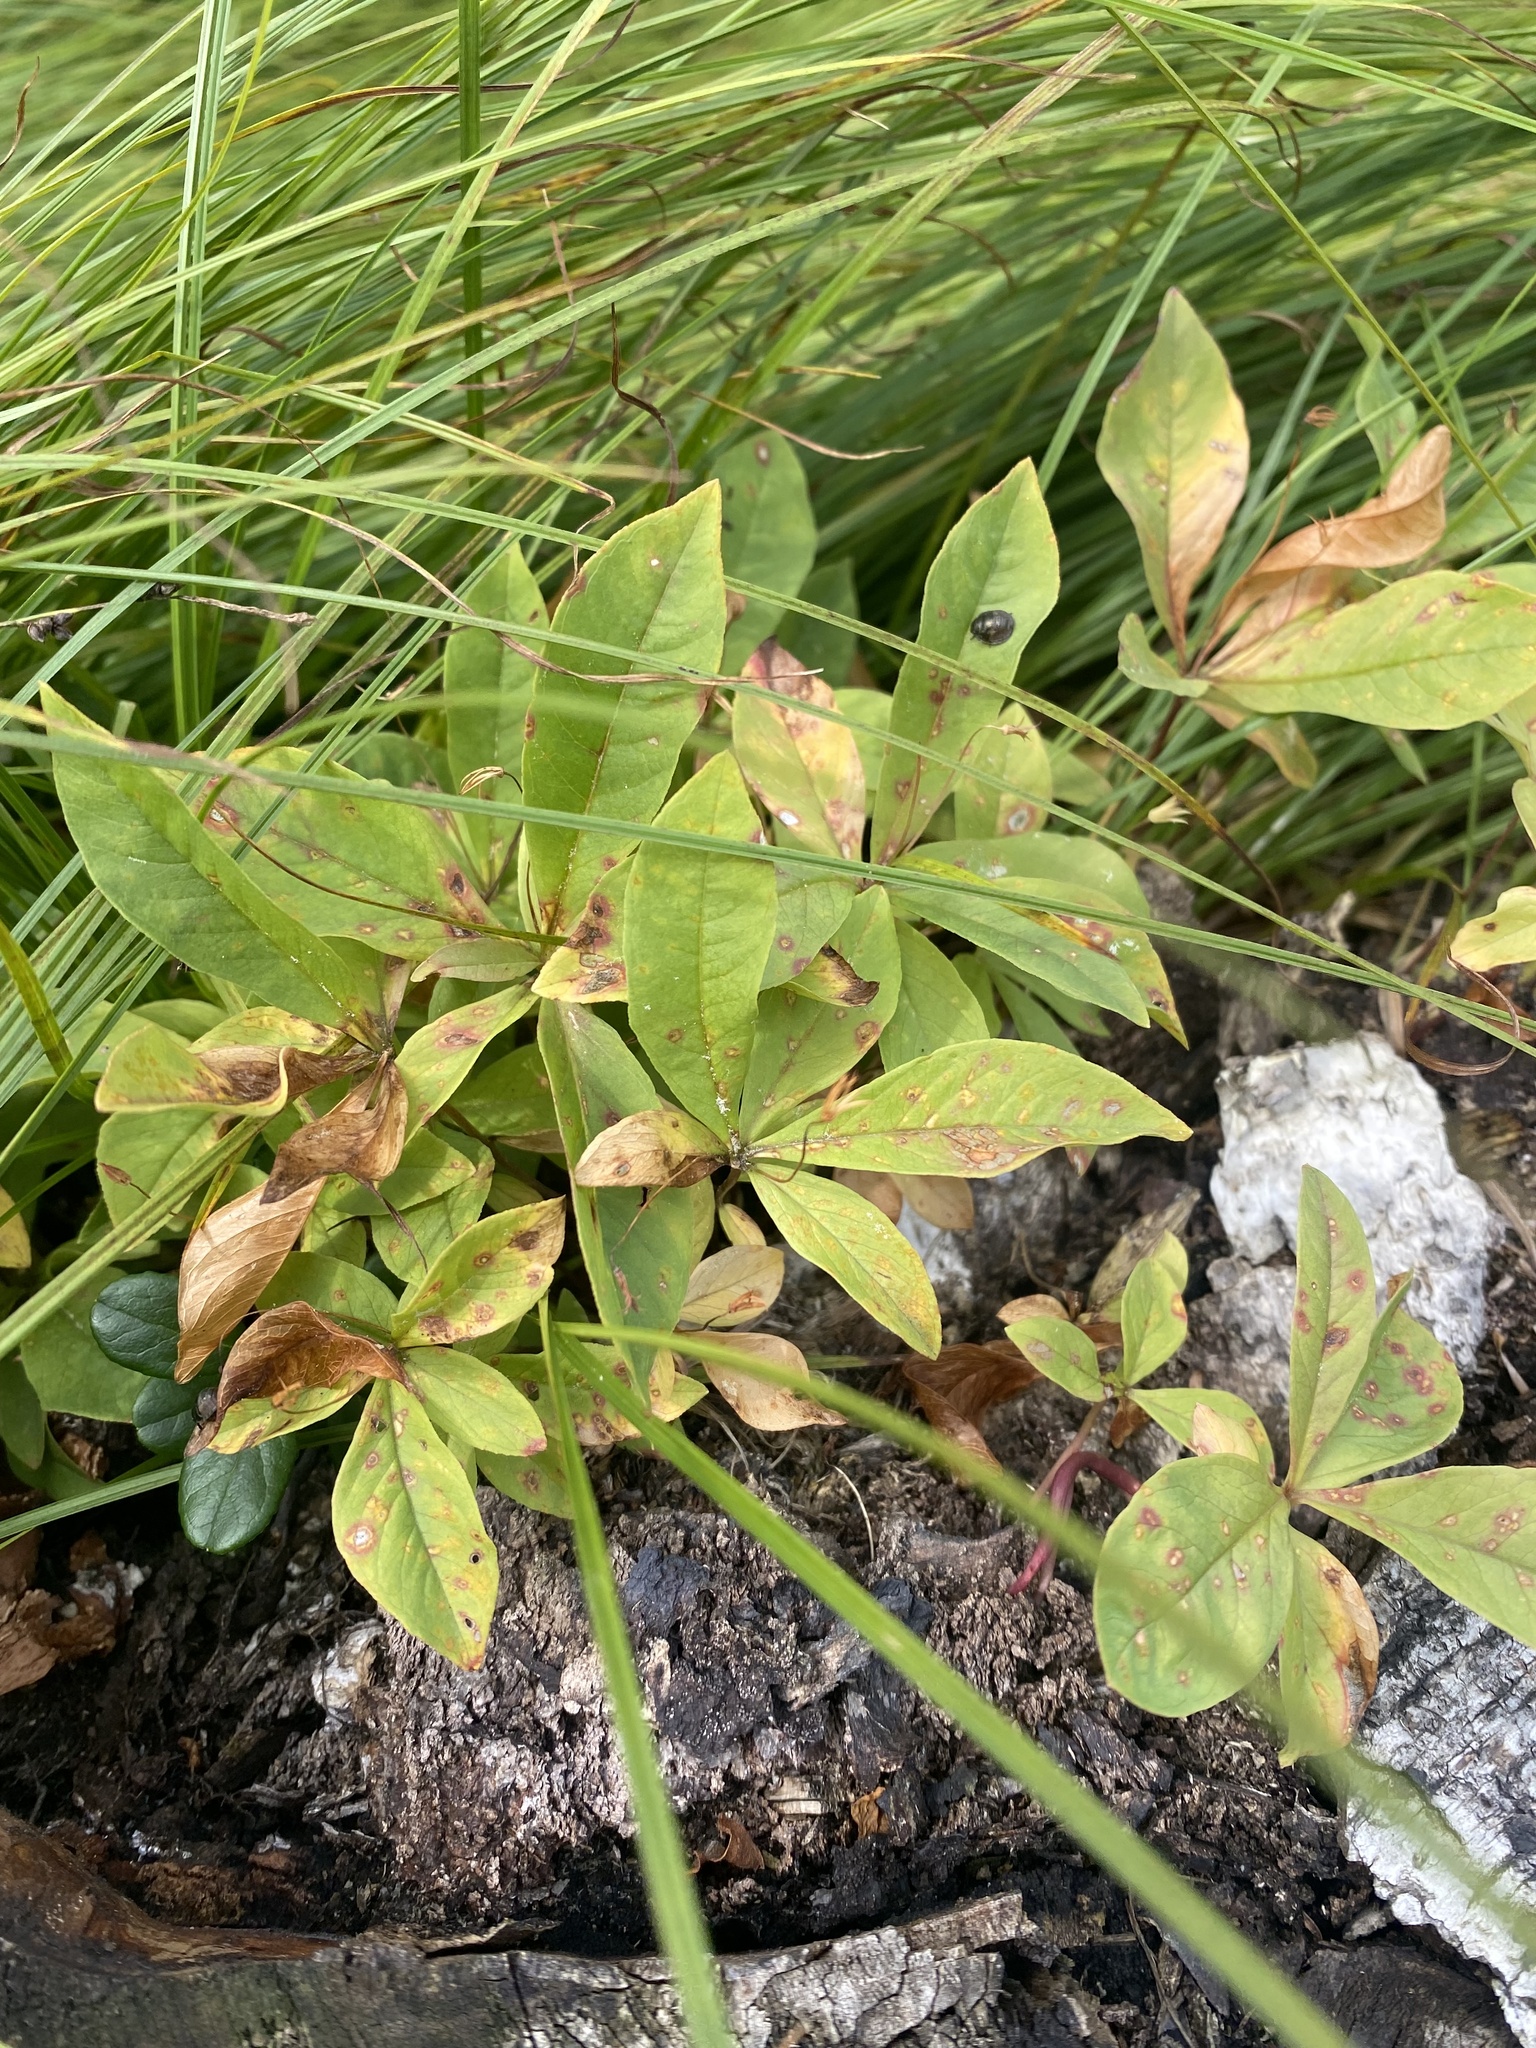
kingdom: Plantae
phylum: Tracheophyta
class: Magnoliopsida
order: Ericales
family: Primulaceae
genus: Lysimachia
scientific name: Lysimachia europaea
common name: Arctic starflower
